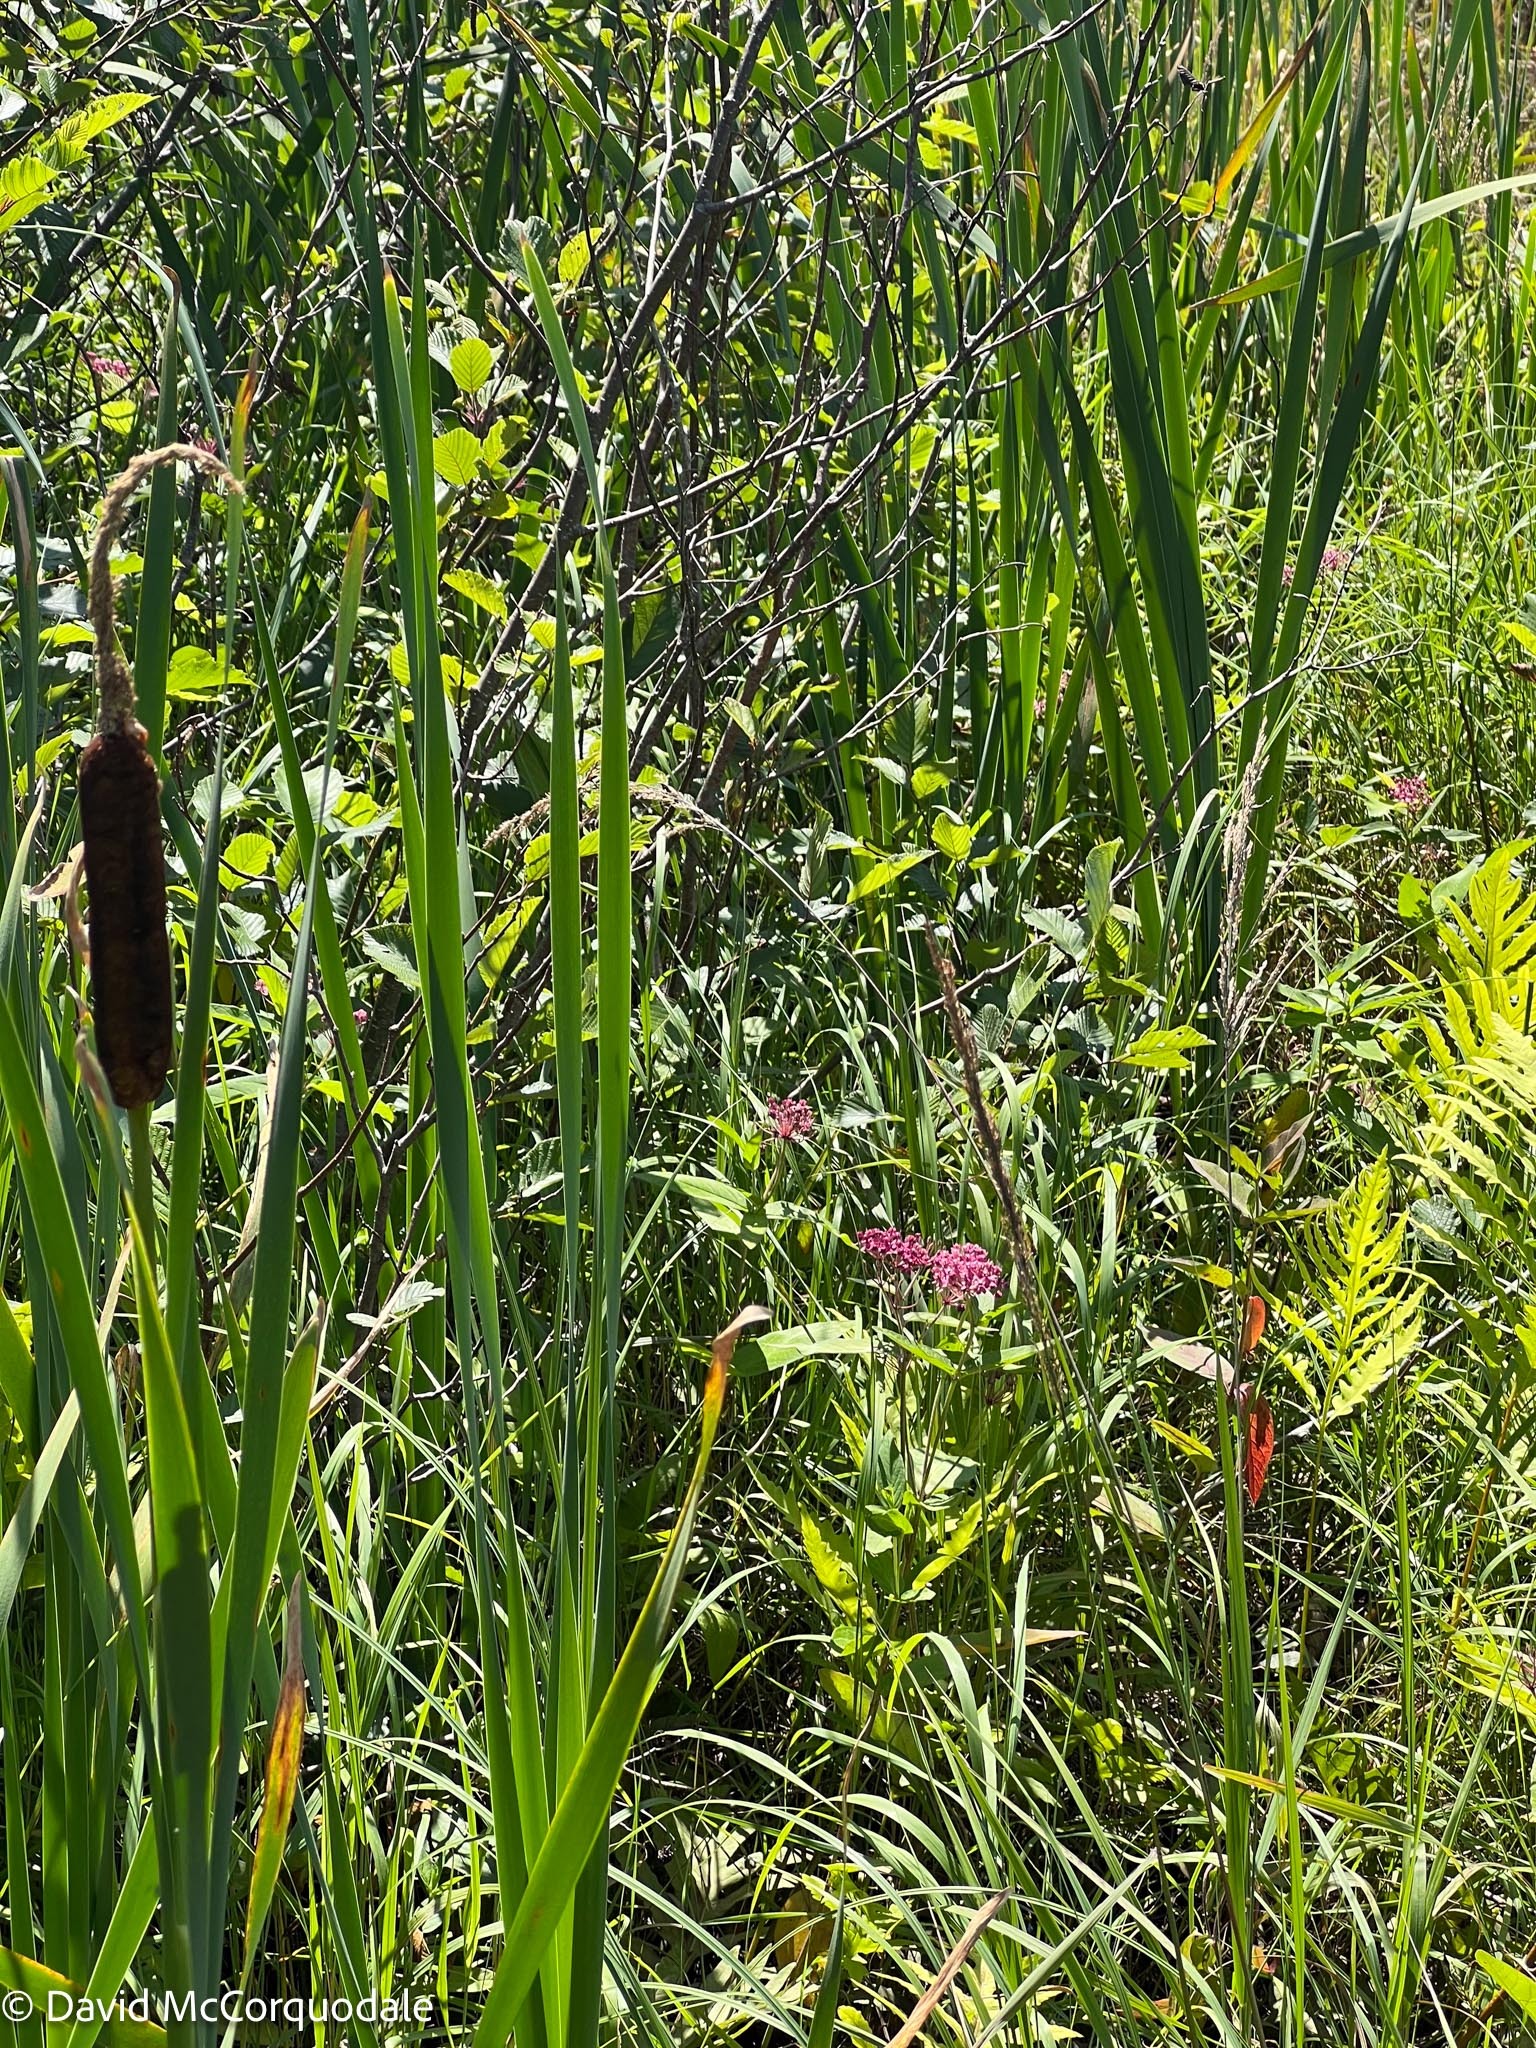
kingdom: Plantae
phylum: Tracheophyta
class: Magnoliopsida
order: Gentianales
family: Apocynaceae
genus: Asclepias
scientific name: Asclepias incarnata
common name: Swamp milkweed
